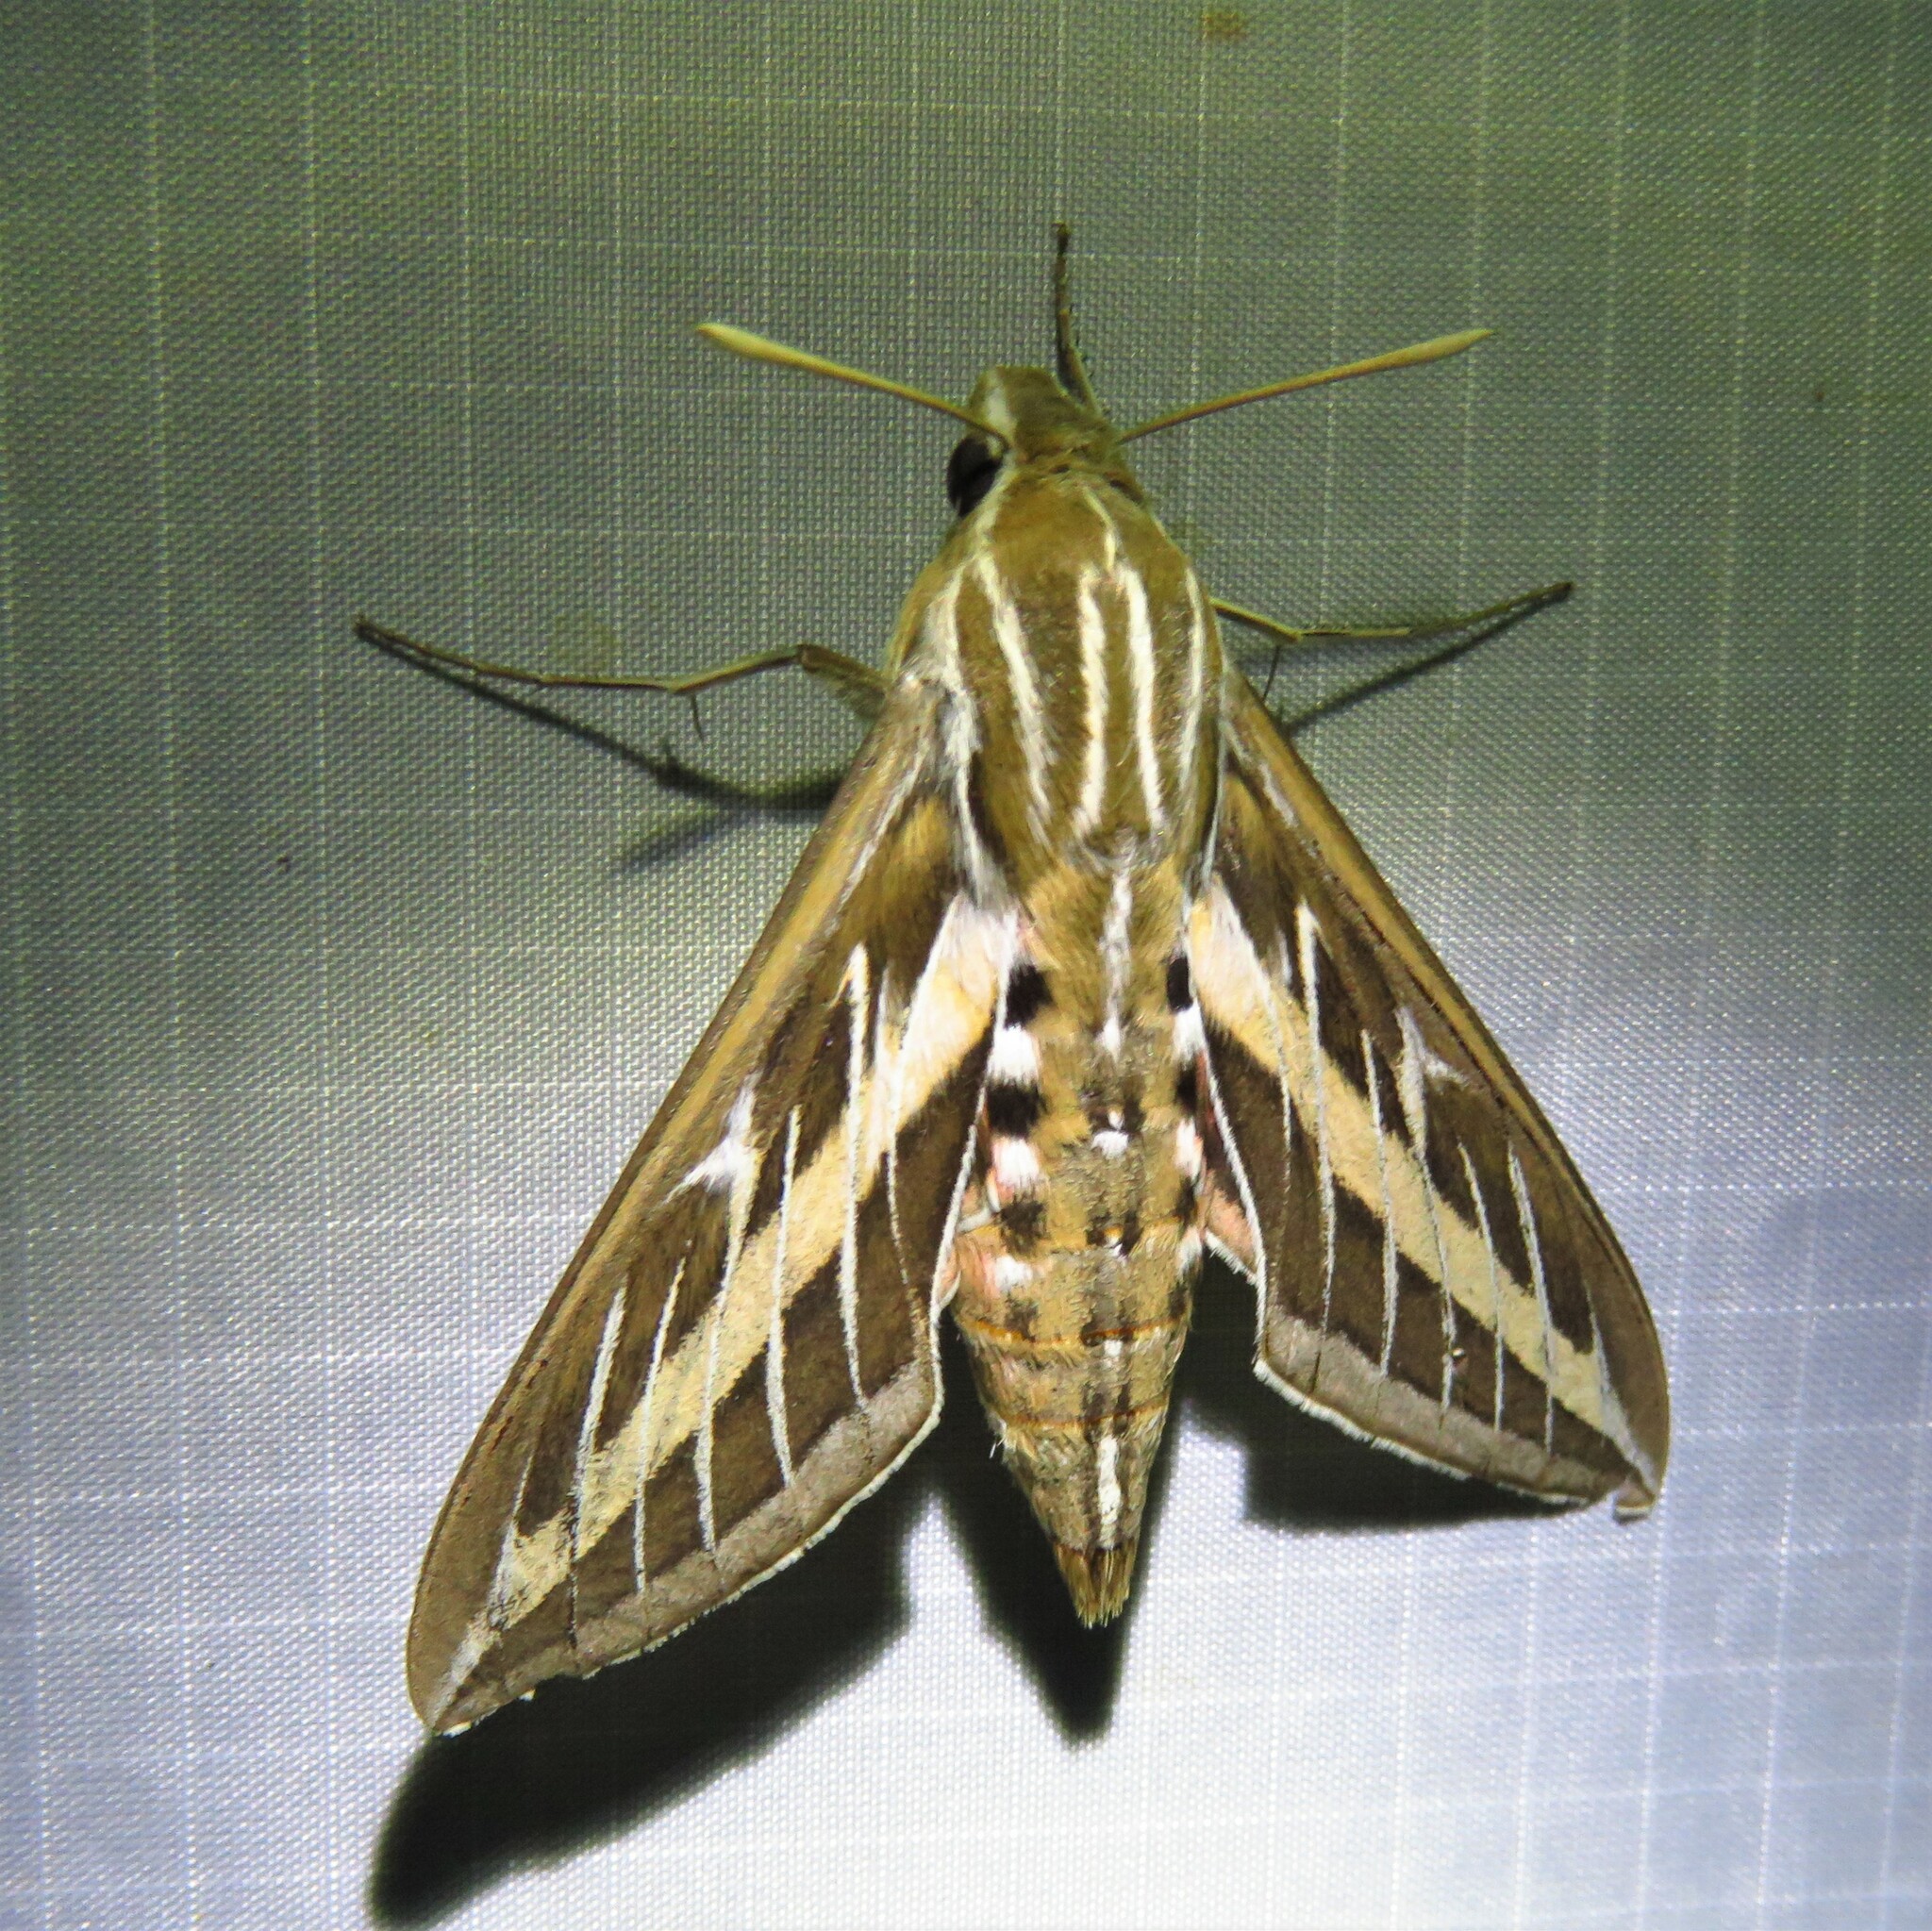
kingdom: Animalia
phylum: Arthropoda
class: Insecta
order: Lepidoptera
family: Sphingidae
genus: Hyles
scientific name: Hyles lineata
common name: White-lined sphinx
